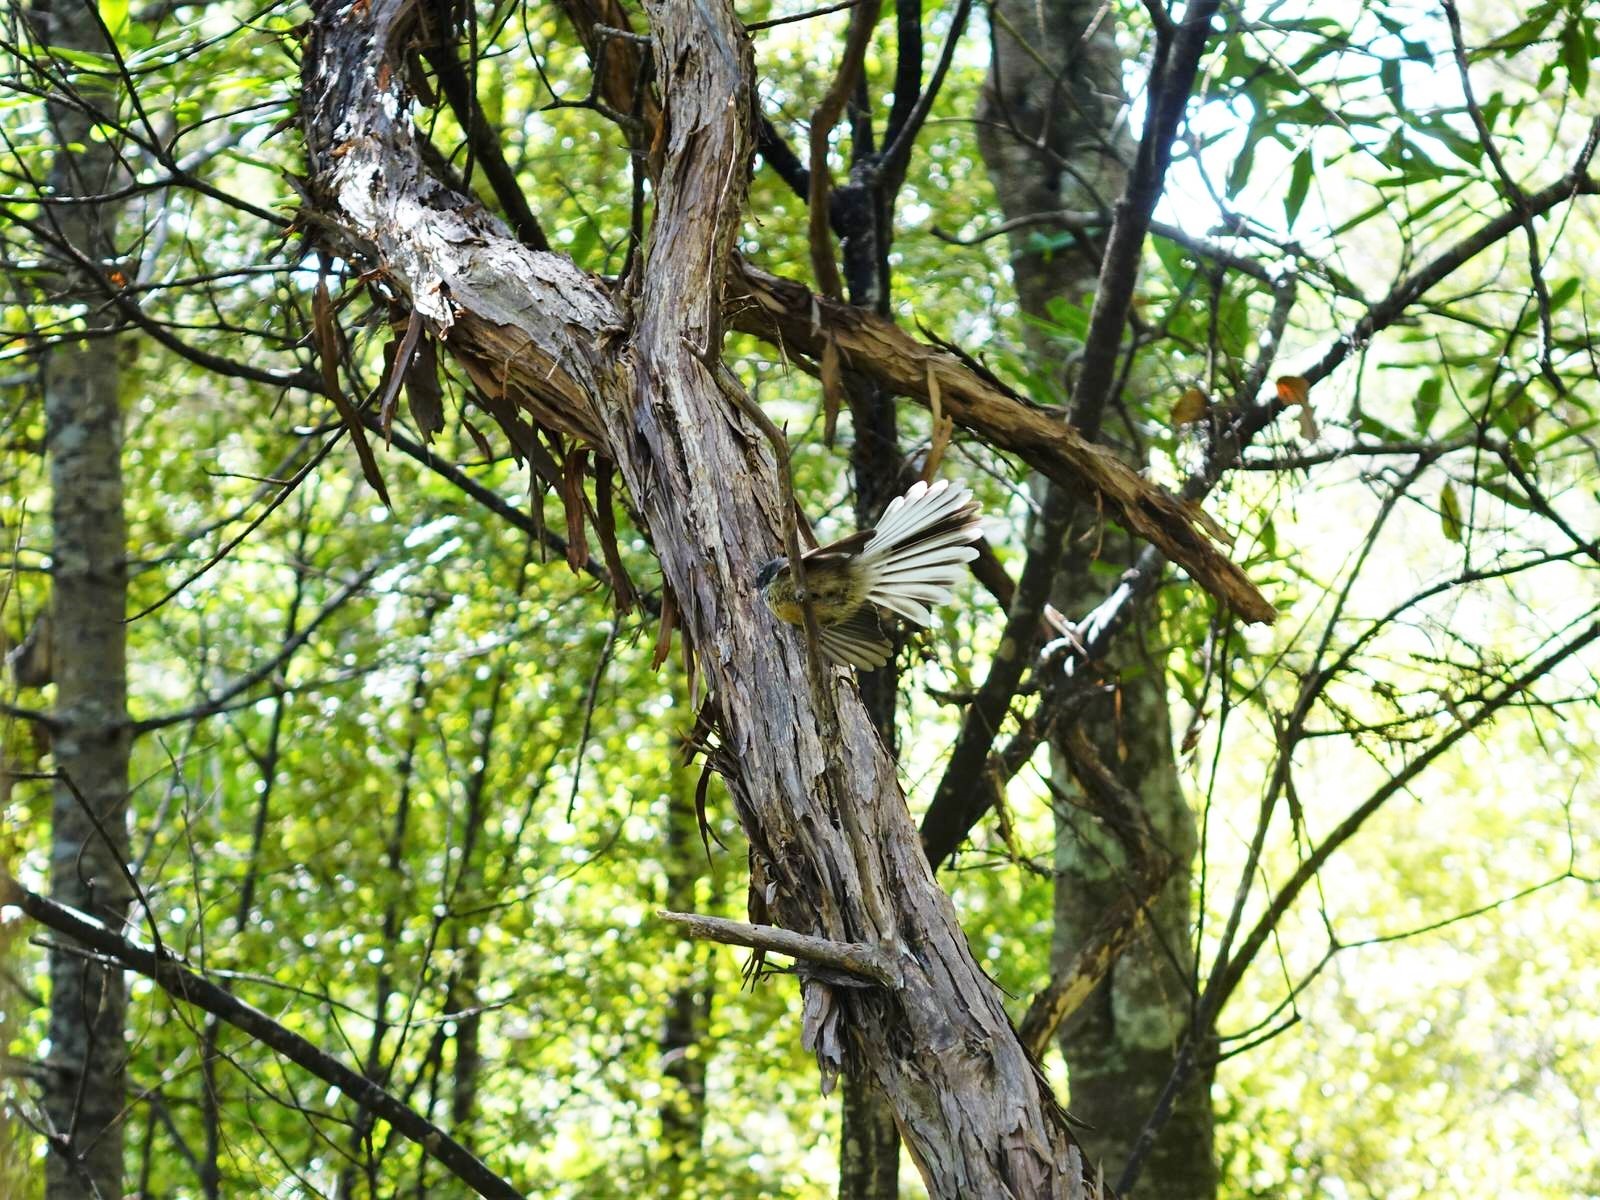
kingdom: Animalia
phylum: Chordata
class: Aves
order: Passeriformes
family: Rhipiduridae
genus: Rhipidura
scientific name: Rhipidura fuliginosa
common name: New zealand fantail
